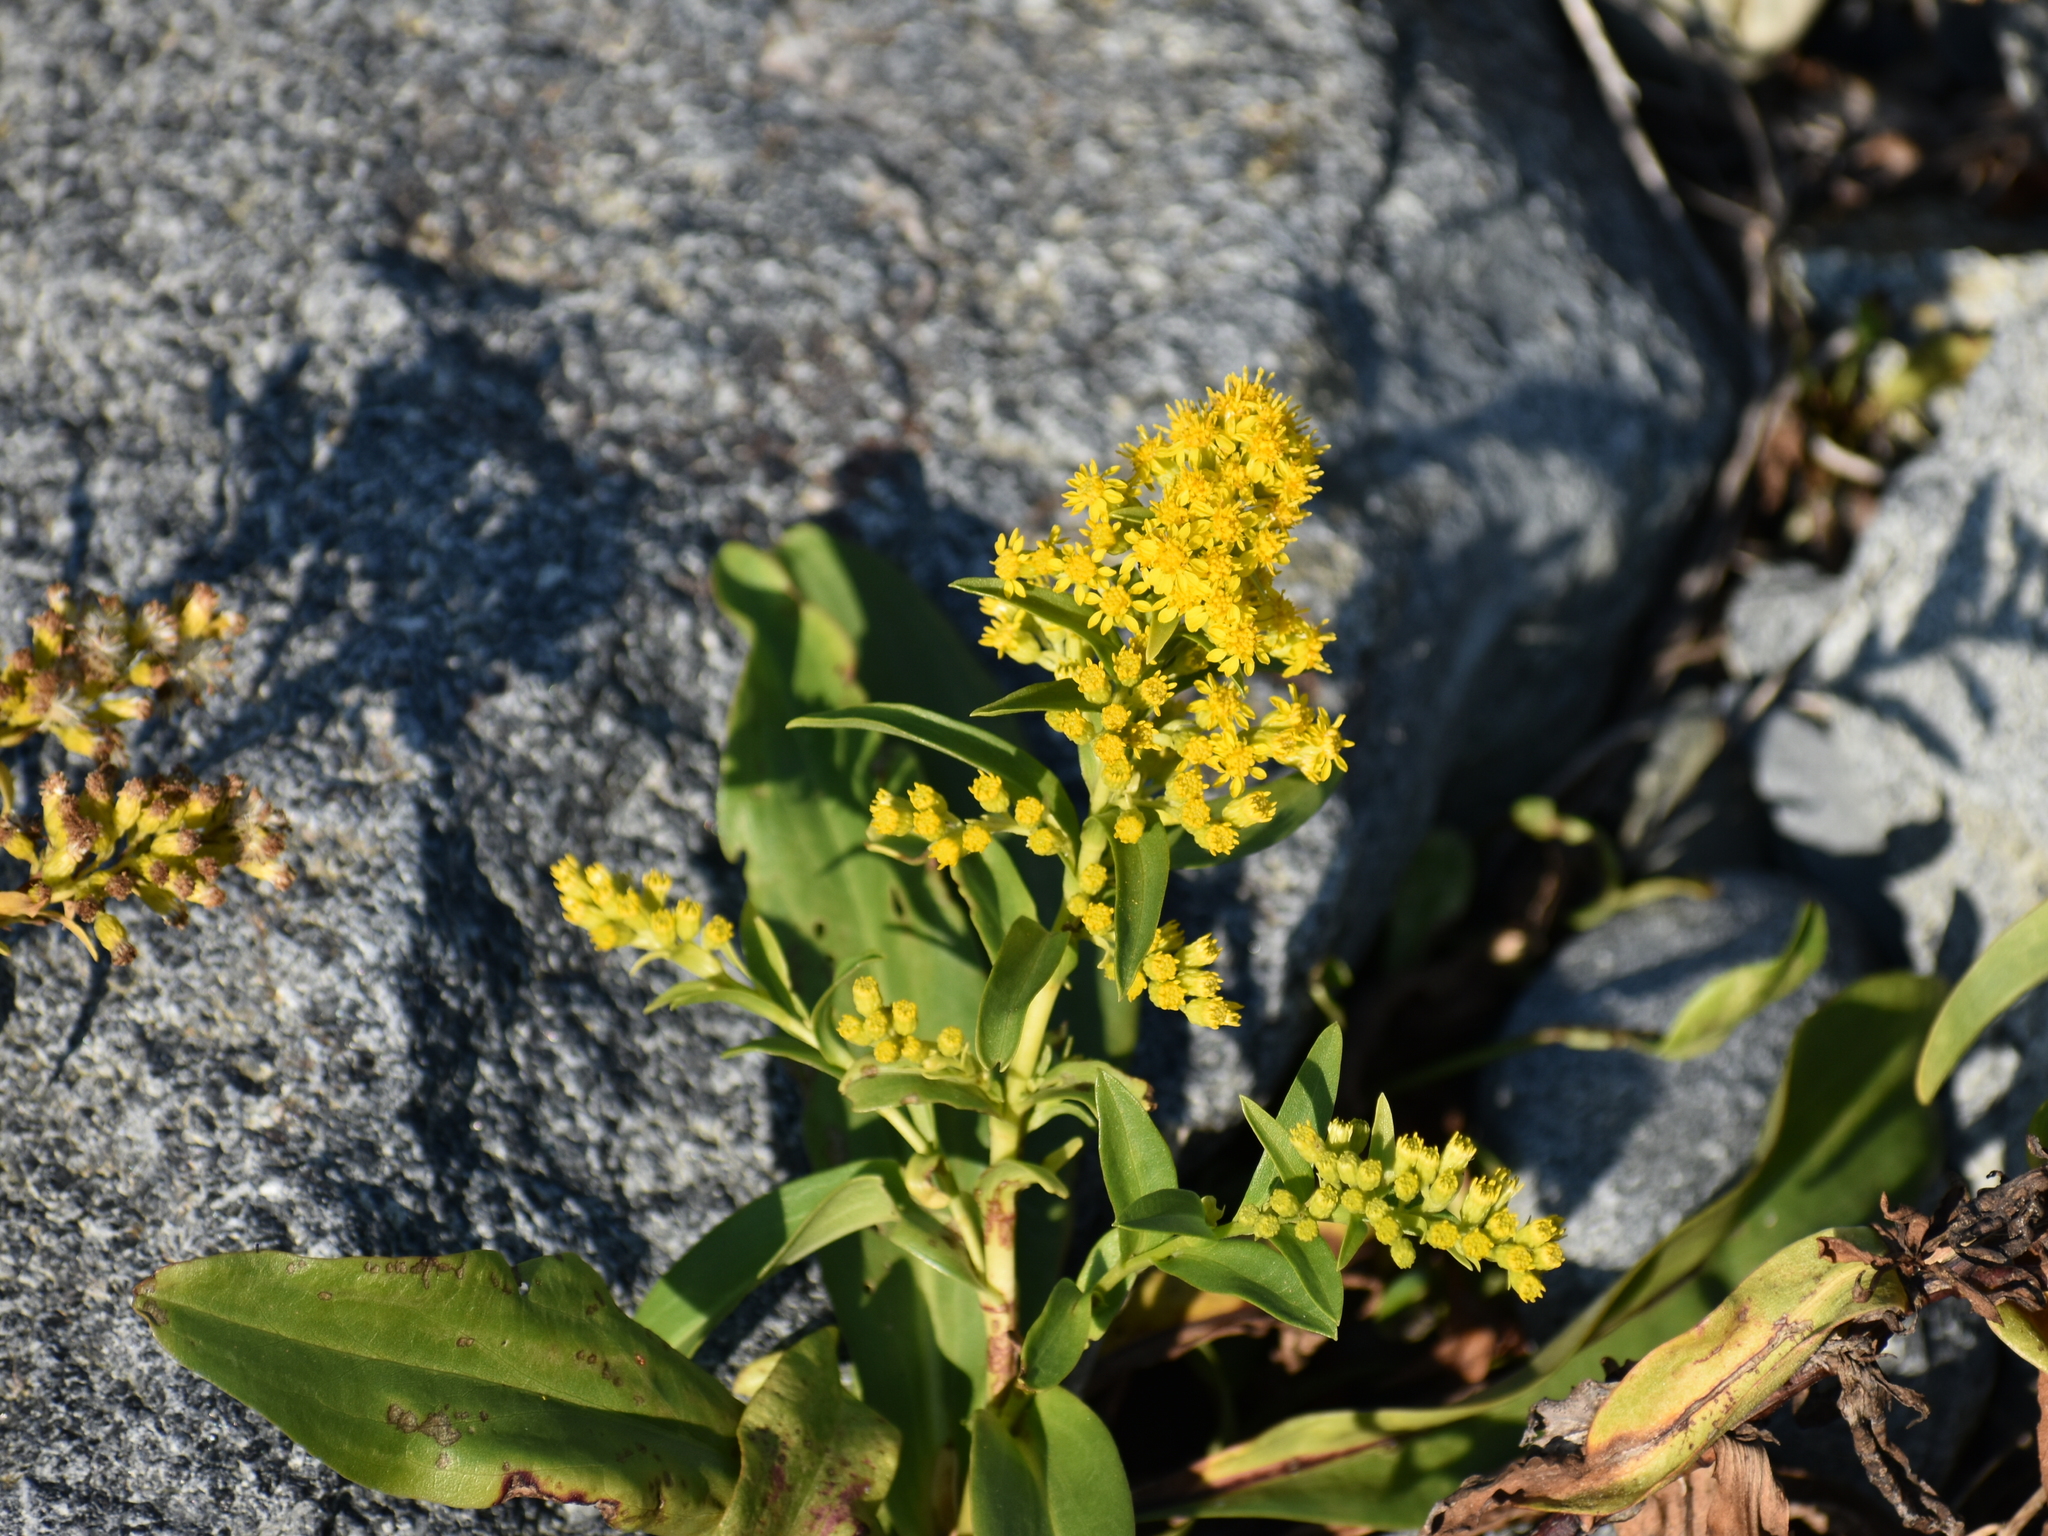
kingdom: Plantae
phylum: Tracheophyta
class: Magnoliopsida
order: Asterales
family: Asteraceae
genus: Solidago
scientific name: Solidago sempervirens
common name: Salt-marsh goldenrod
